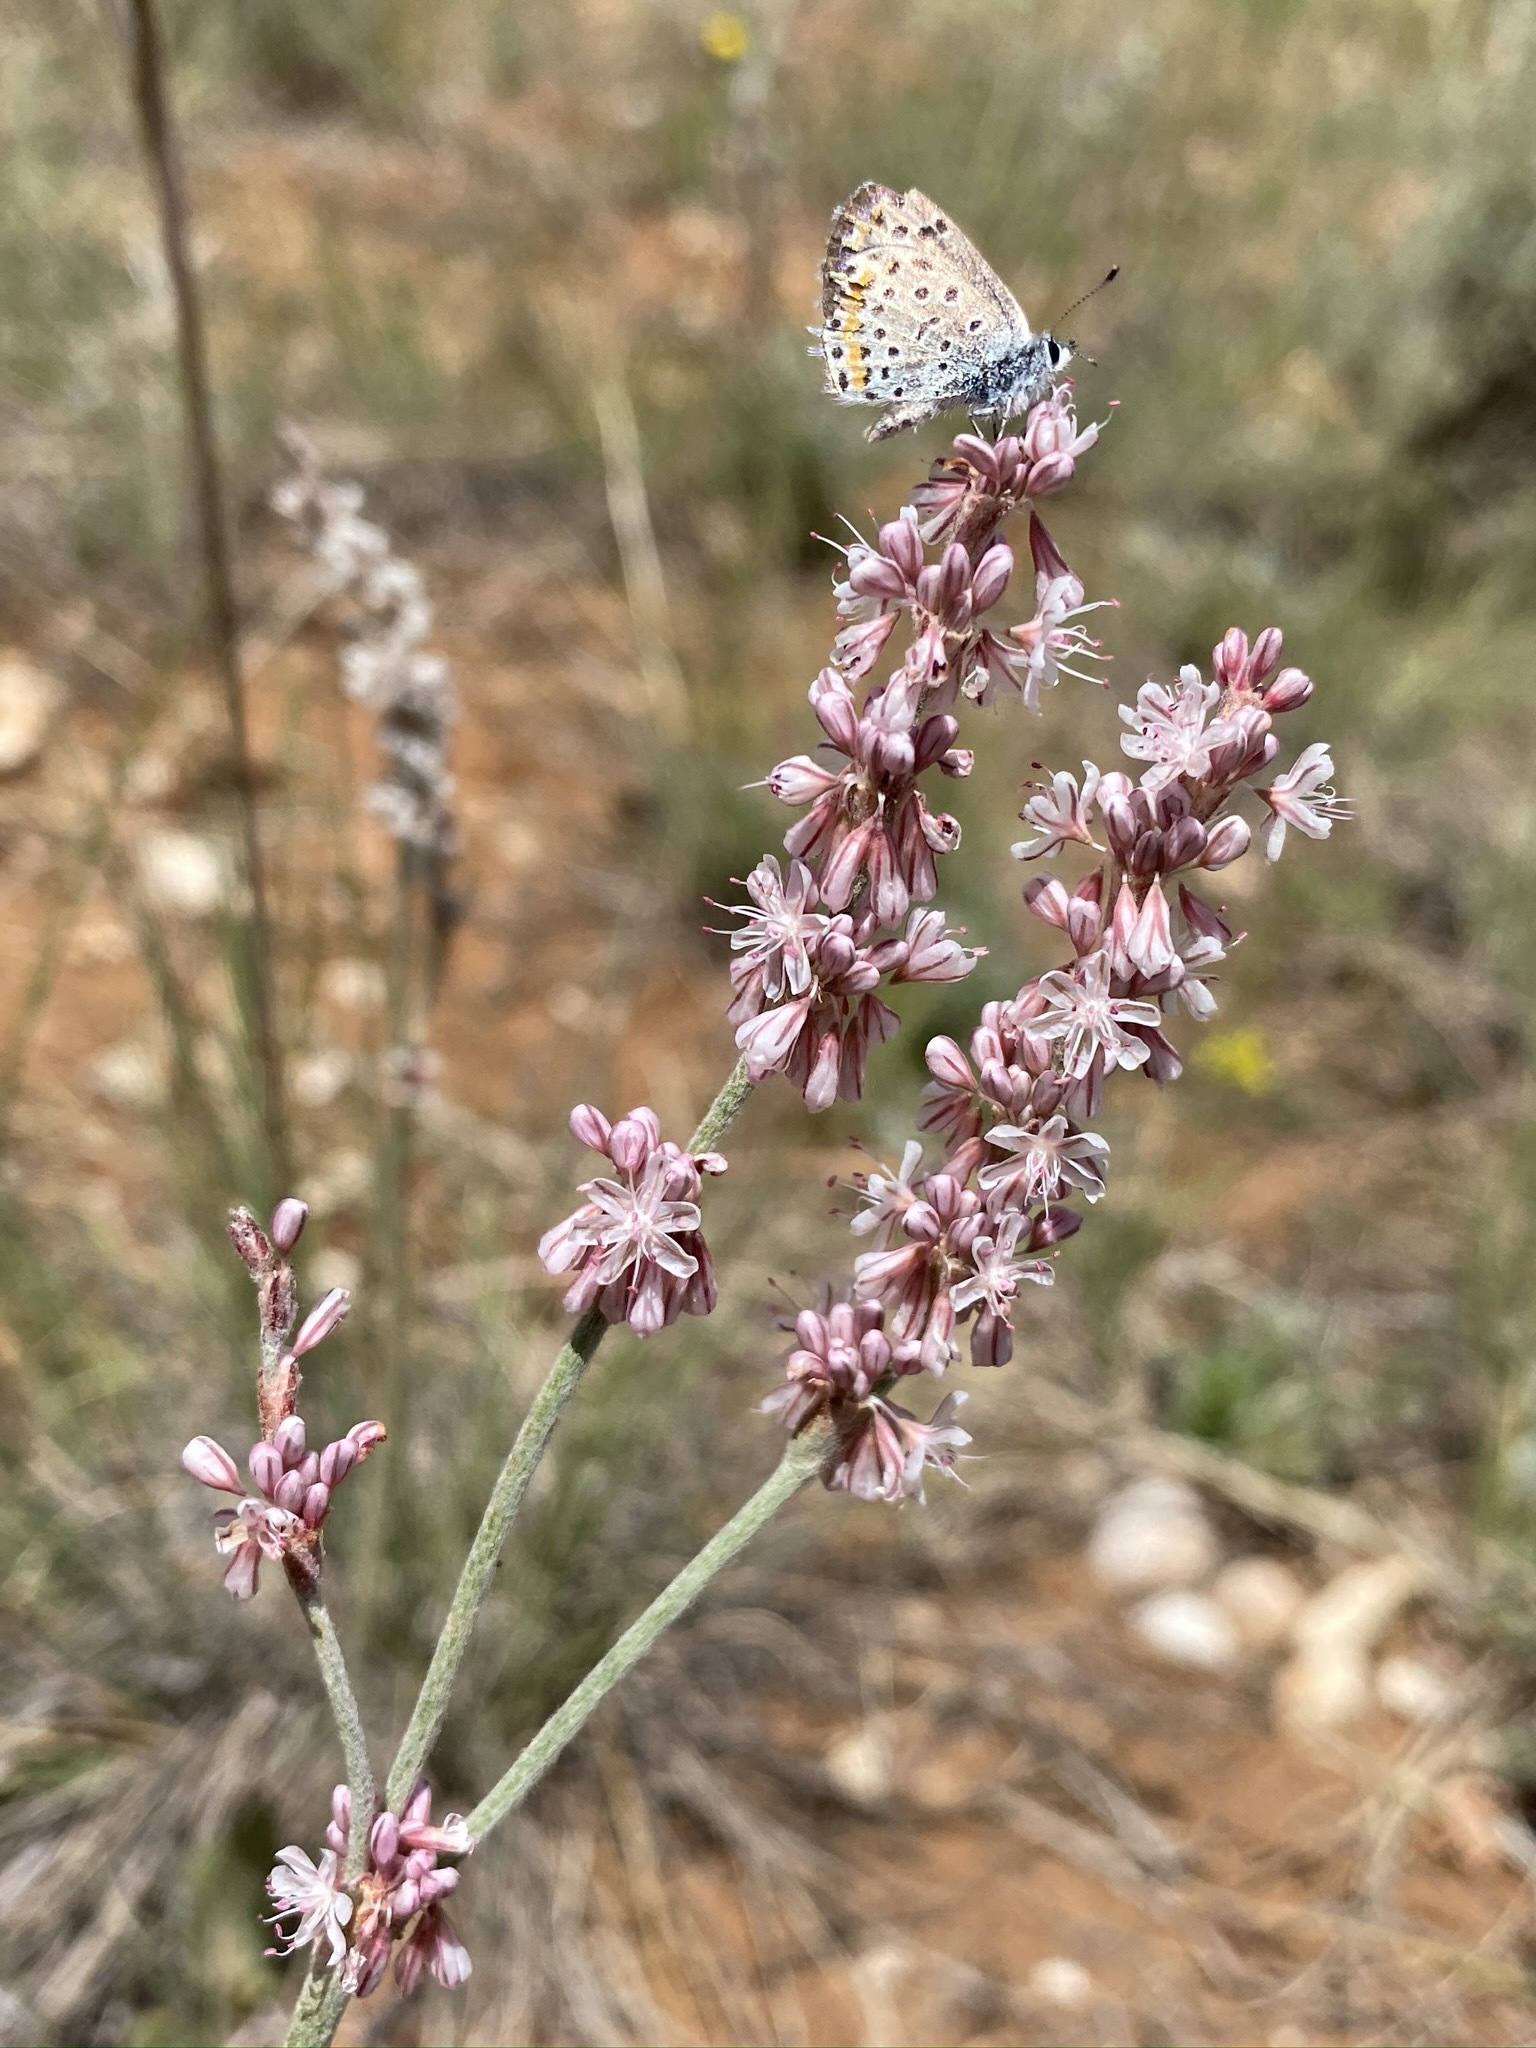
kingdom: Plantae
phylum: Tracheophyta
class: Magnoliopsida
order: Caryophyllales
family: Polygonaceae
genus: Eriogonum
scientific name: Eriogonum racemosum
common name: Redroot wild buckwheat
